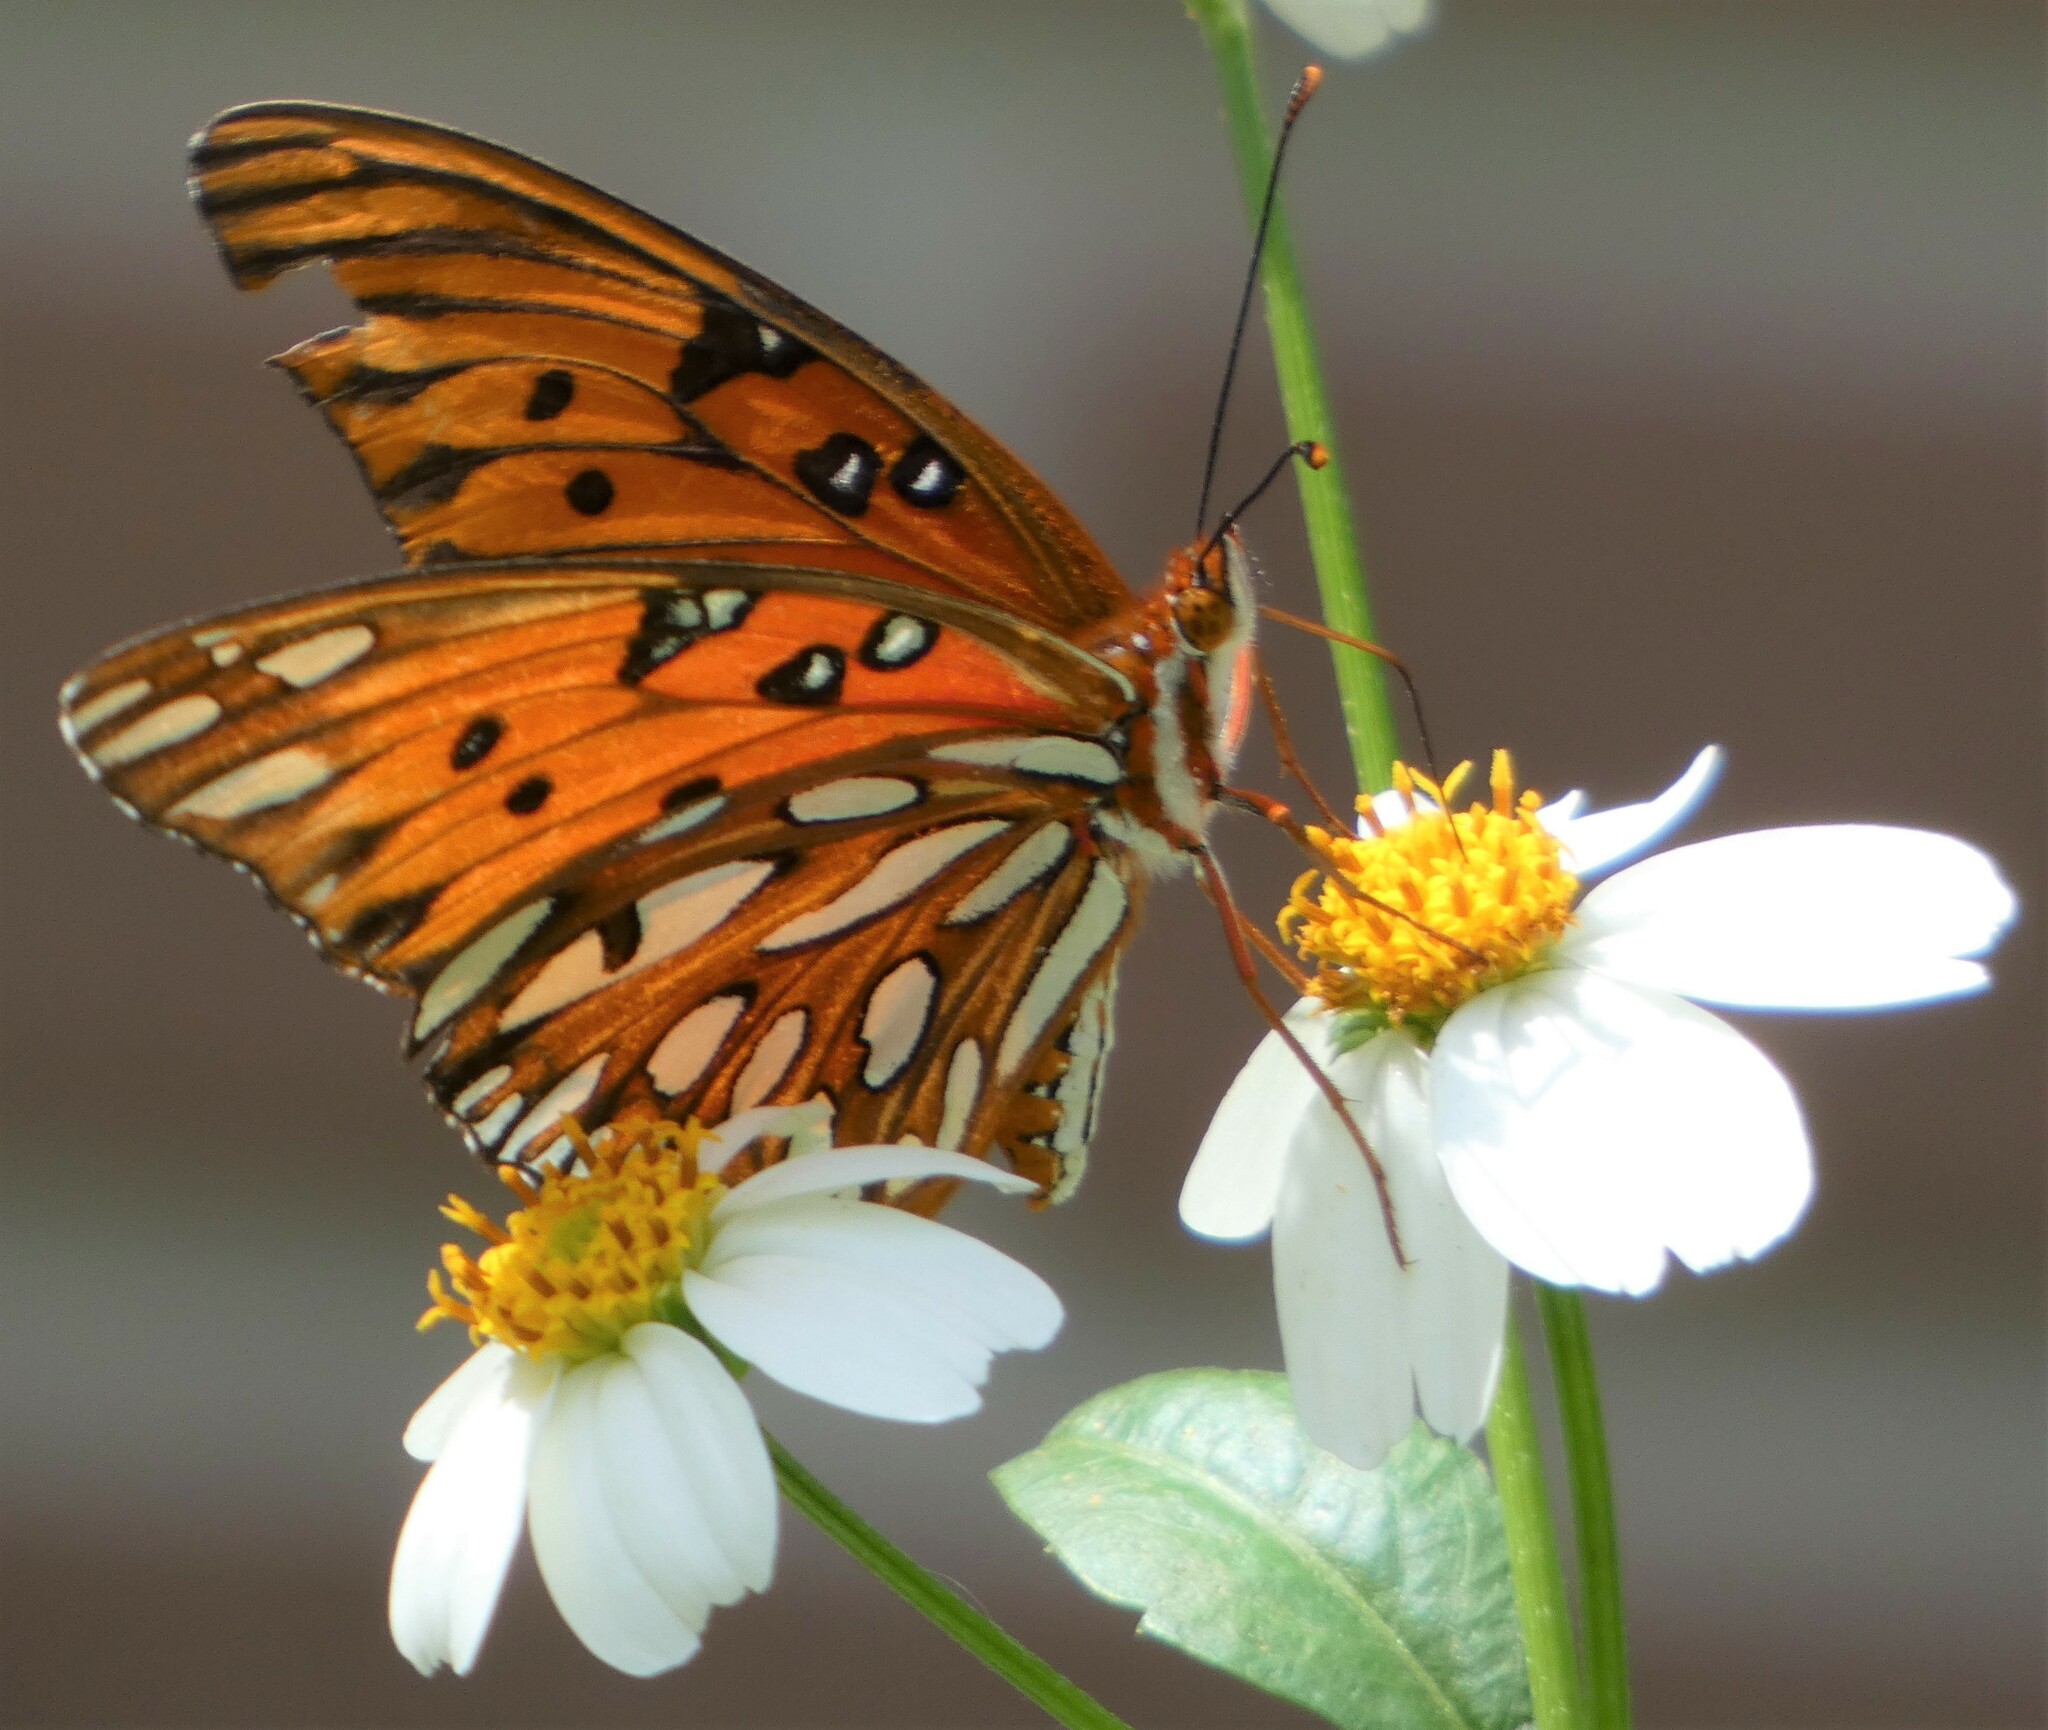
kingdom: Animalia
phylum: Arthropoda
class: Insecta
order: Lepidoptera
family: Nymphalidae
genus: Dione
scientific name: Dione vanillae
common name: Gulf fritillary
